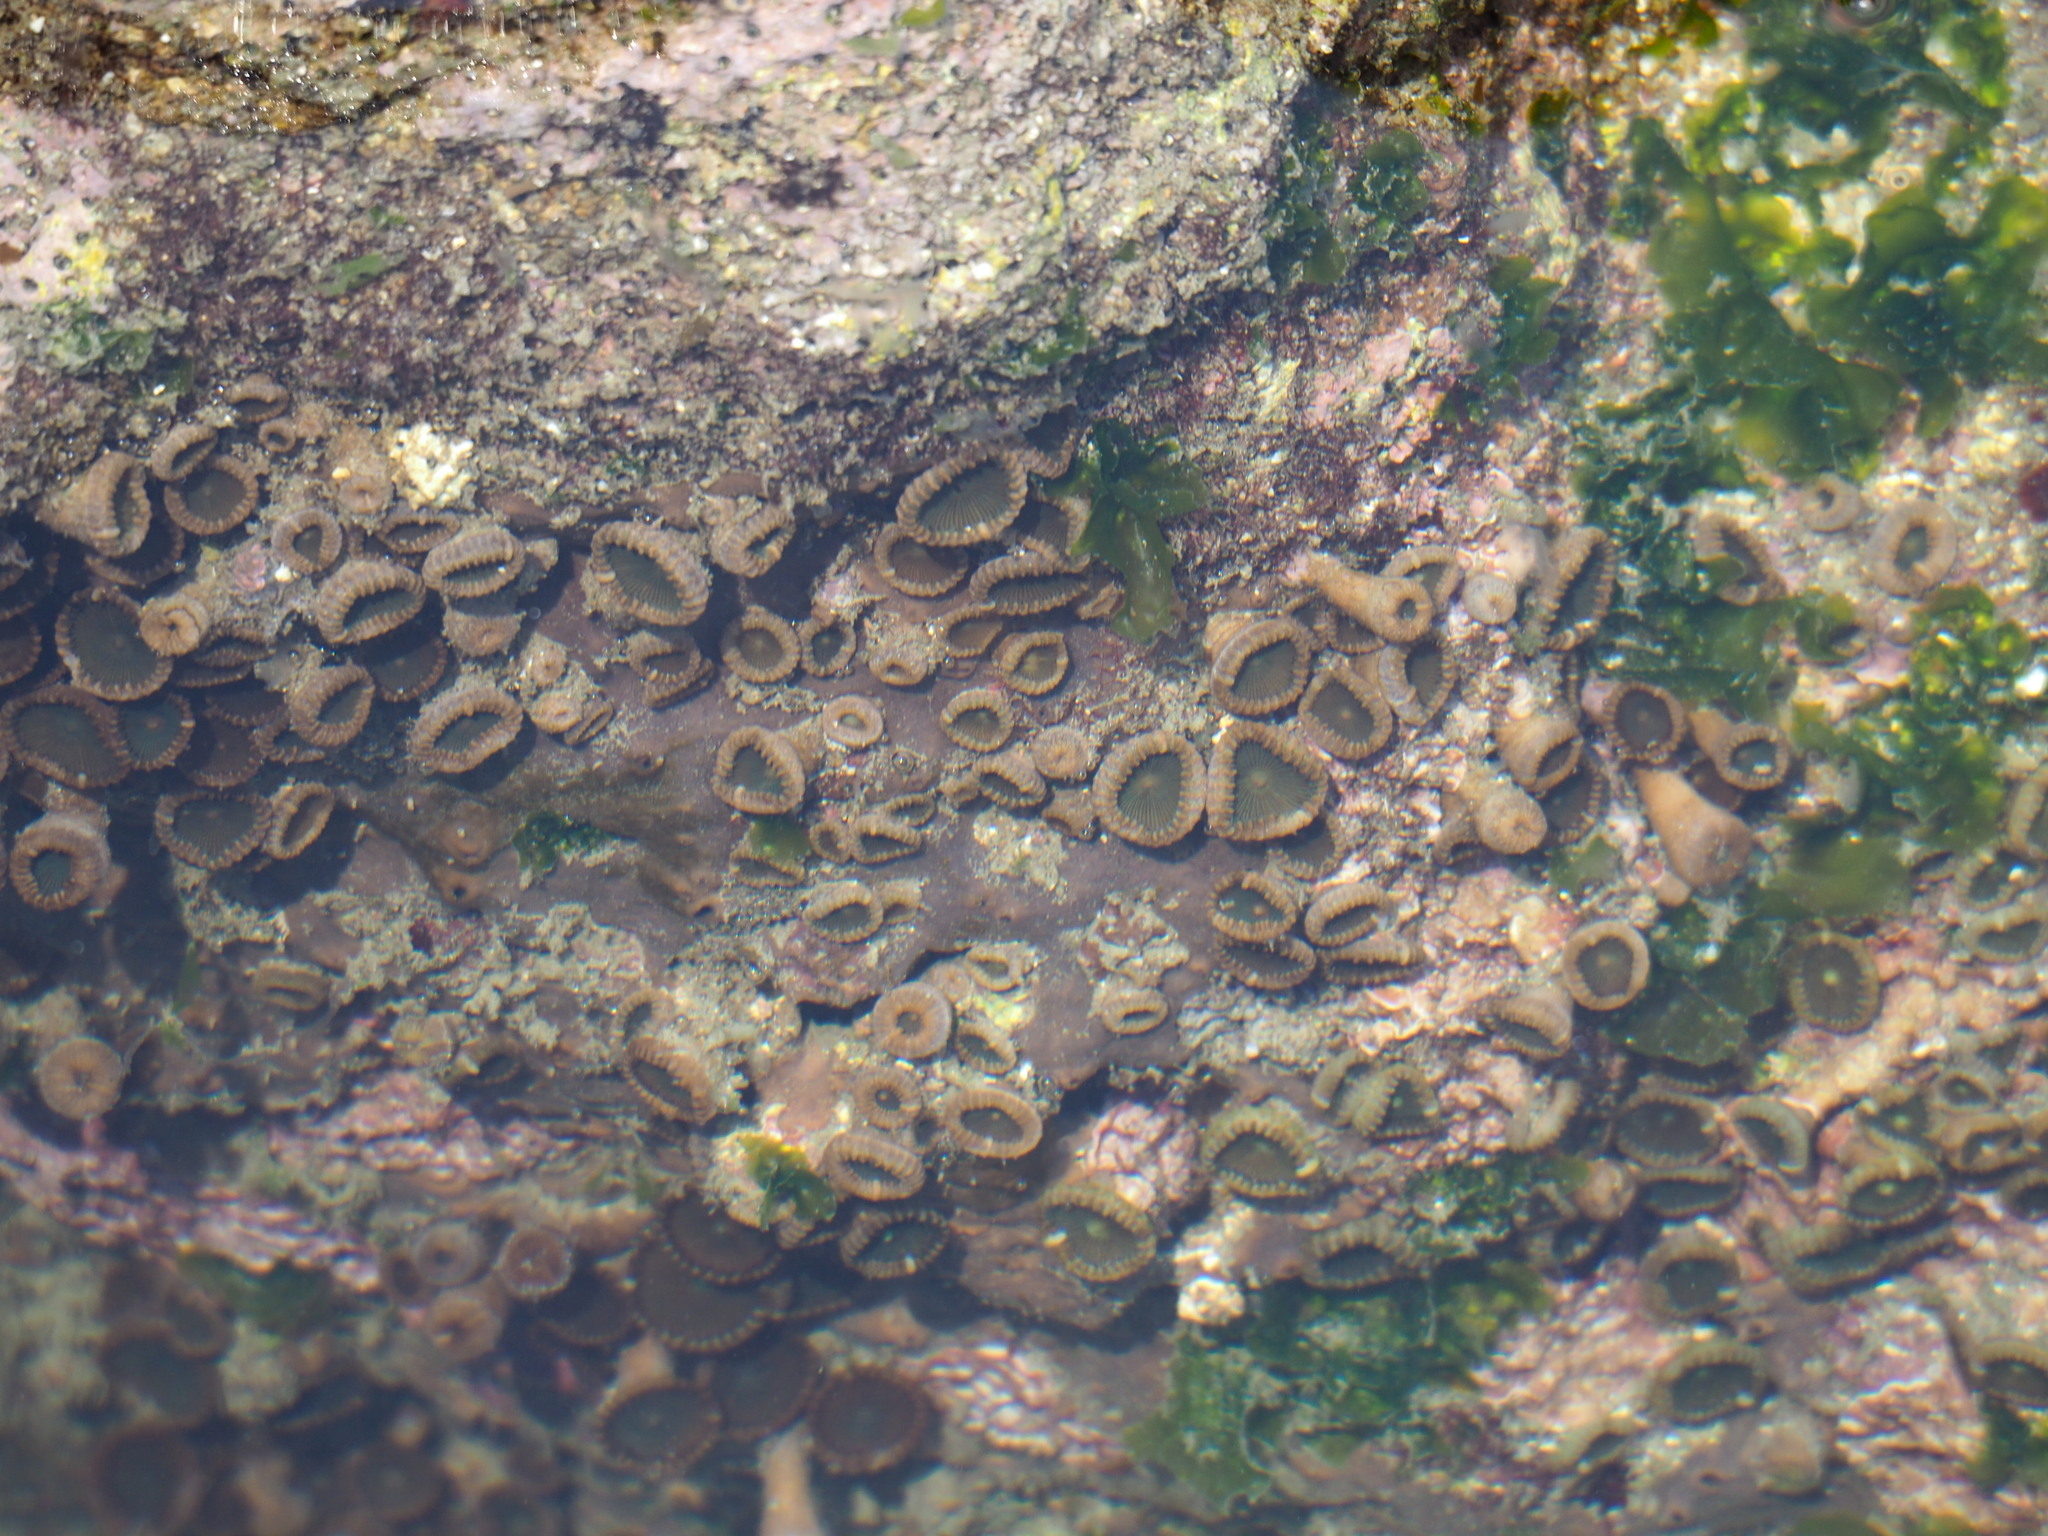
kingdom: Animalia
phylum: Cnidaria
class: Anthozoa
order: Zoantharia
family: Sphenopidae
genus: Palythoa
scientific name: Palythoa mutuki
